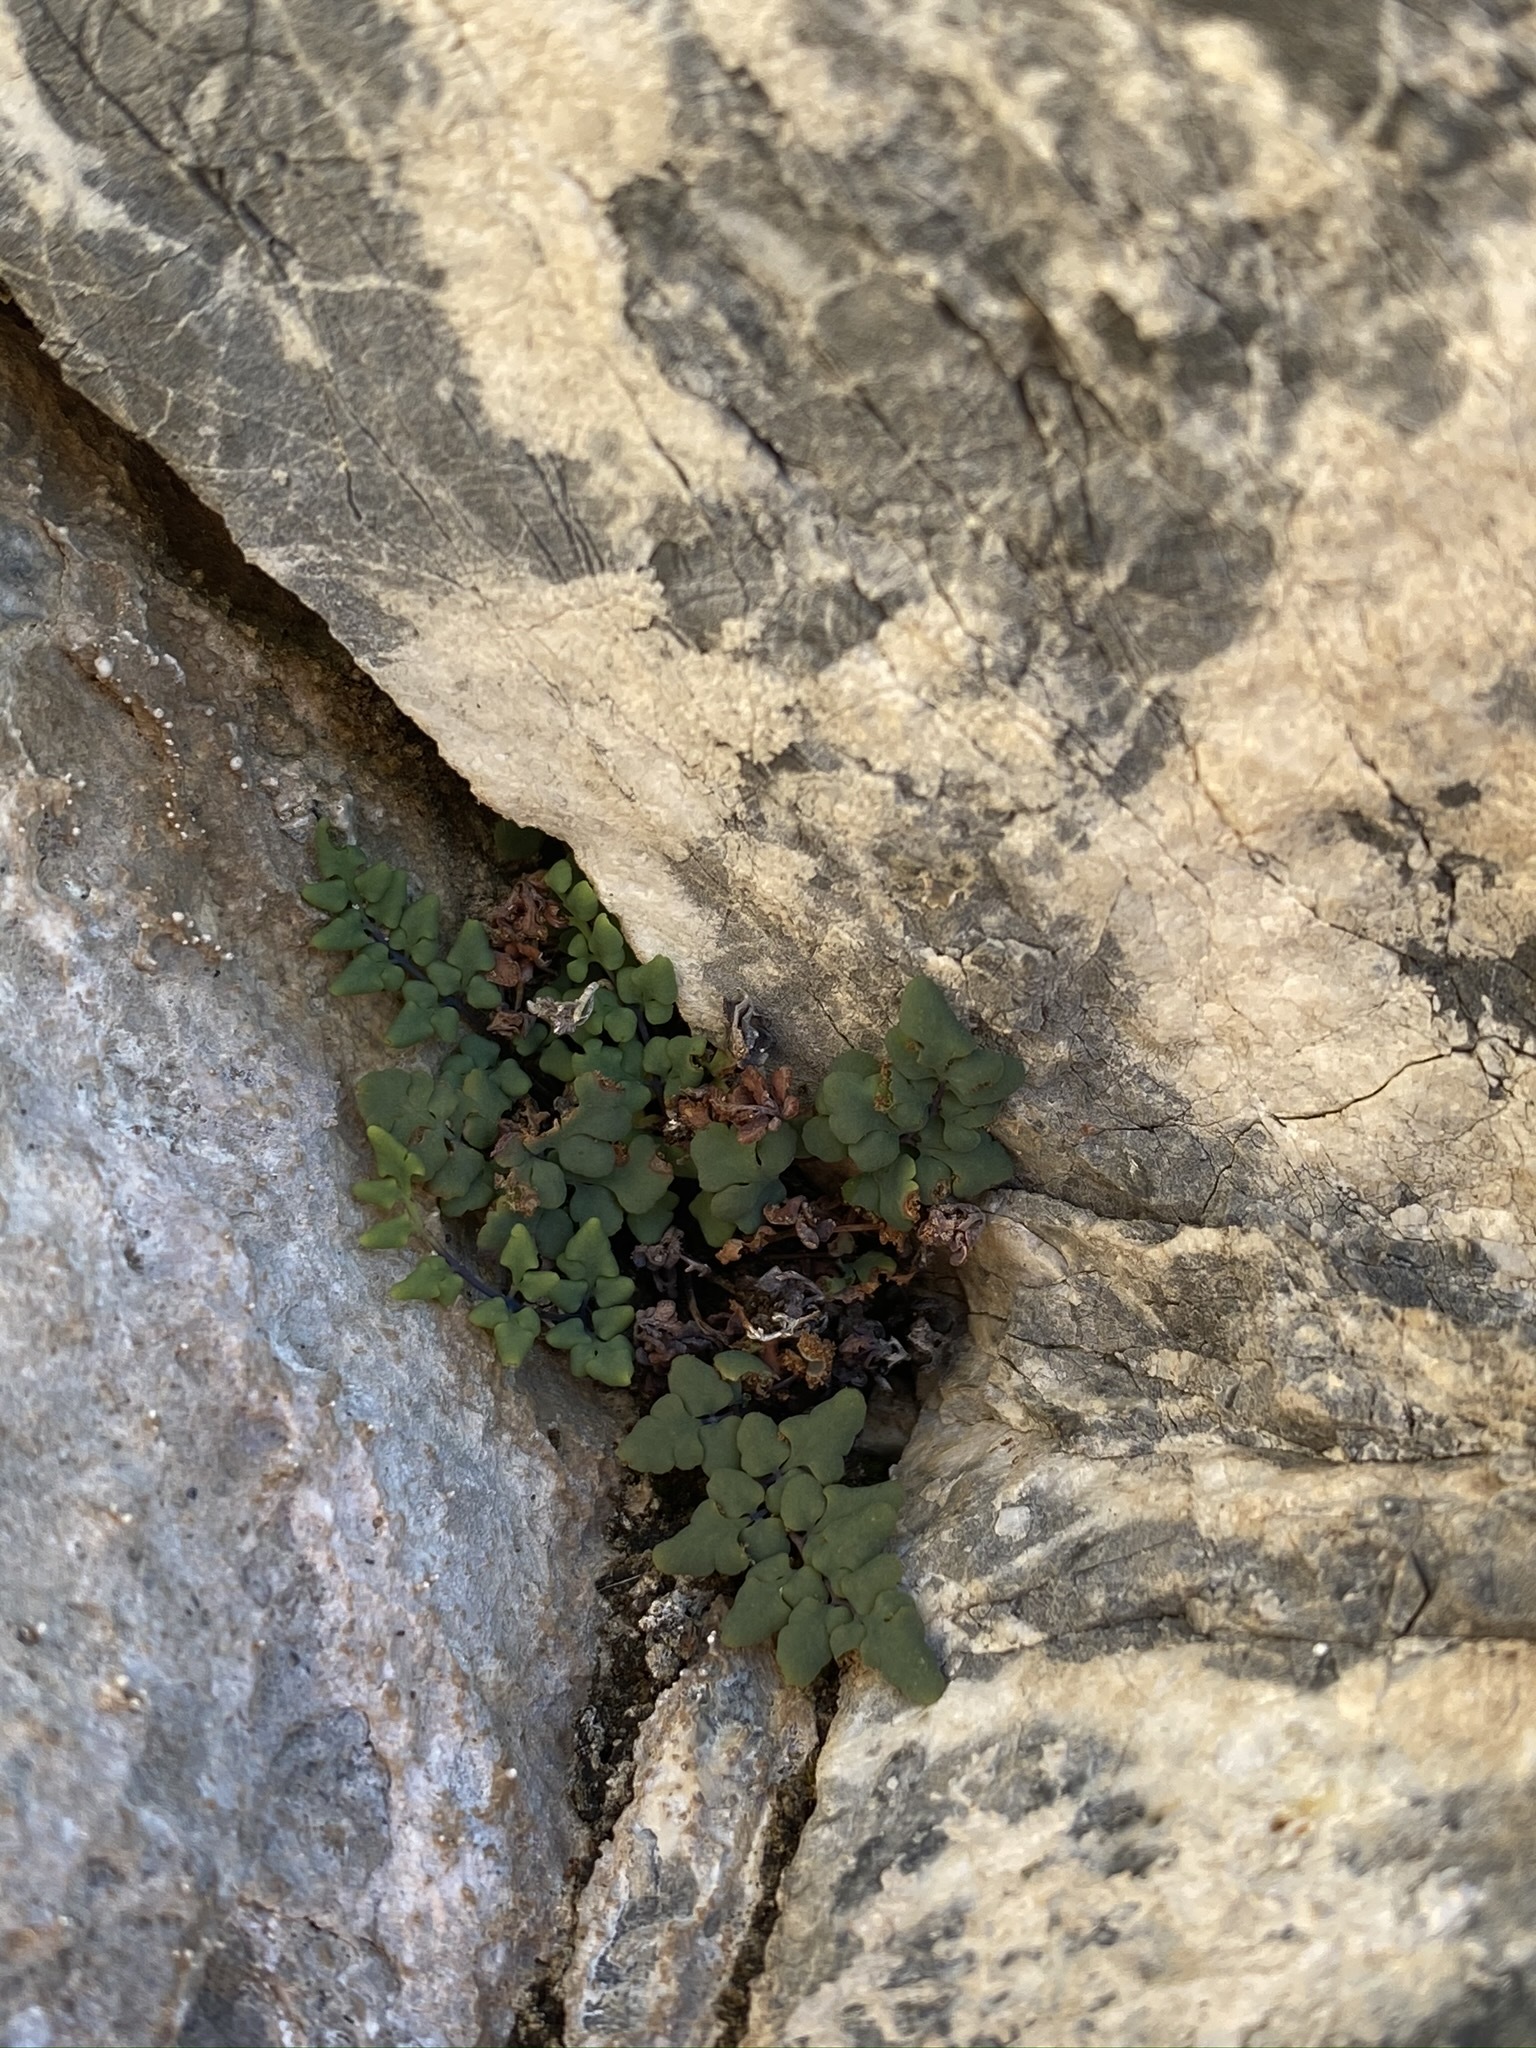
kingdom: Plantae
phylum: Tracheophyta
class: Polypodiopsida
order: Polypodiales
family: Pteridaceae
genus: Argyrochosma
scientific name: Argyrochosma jonesii
